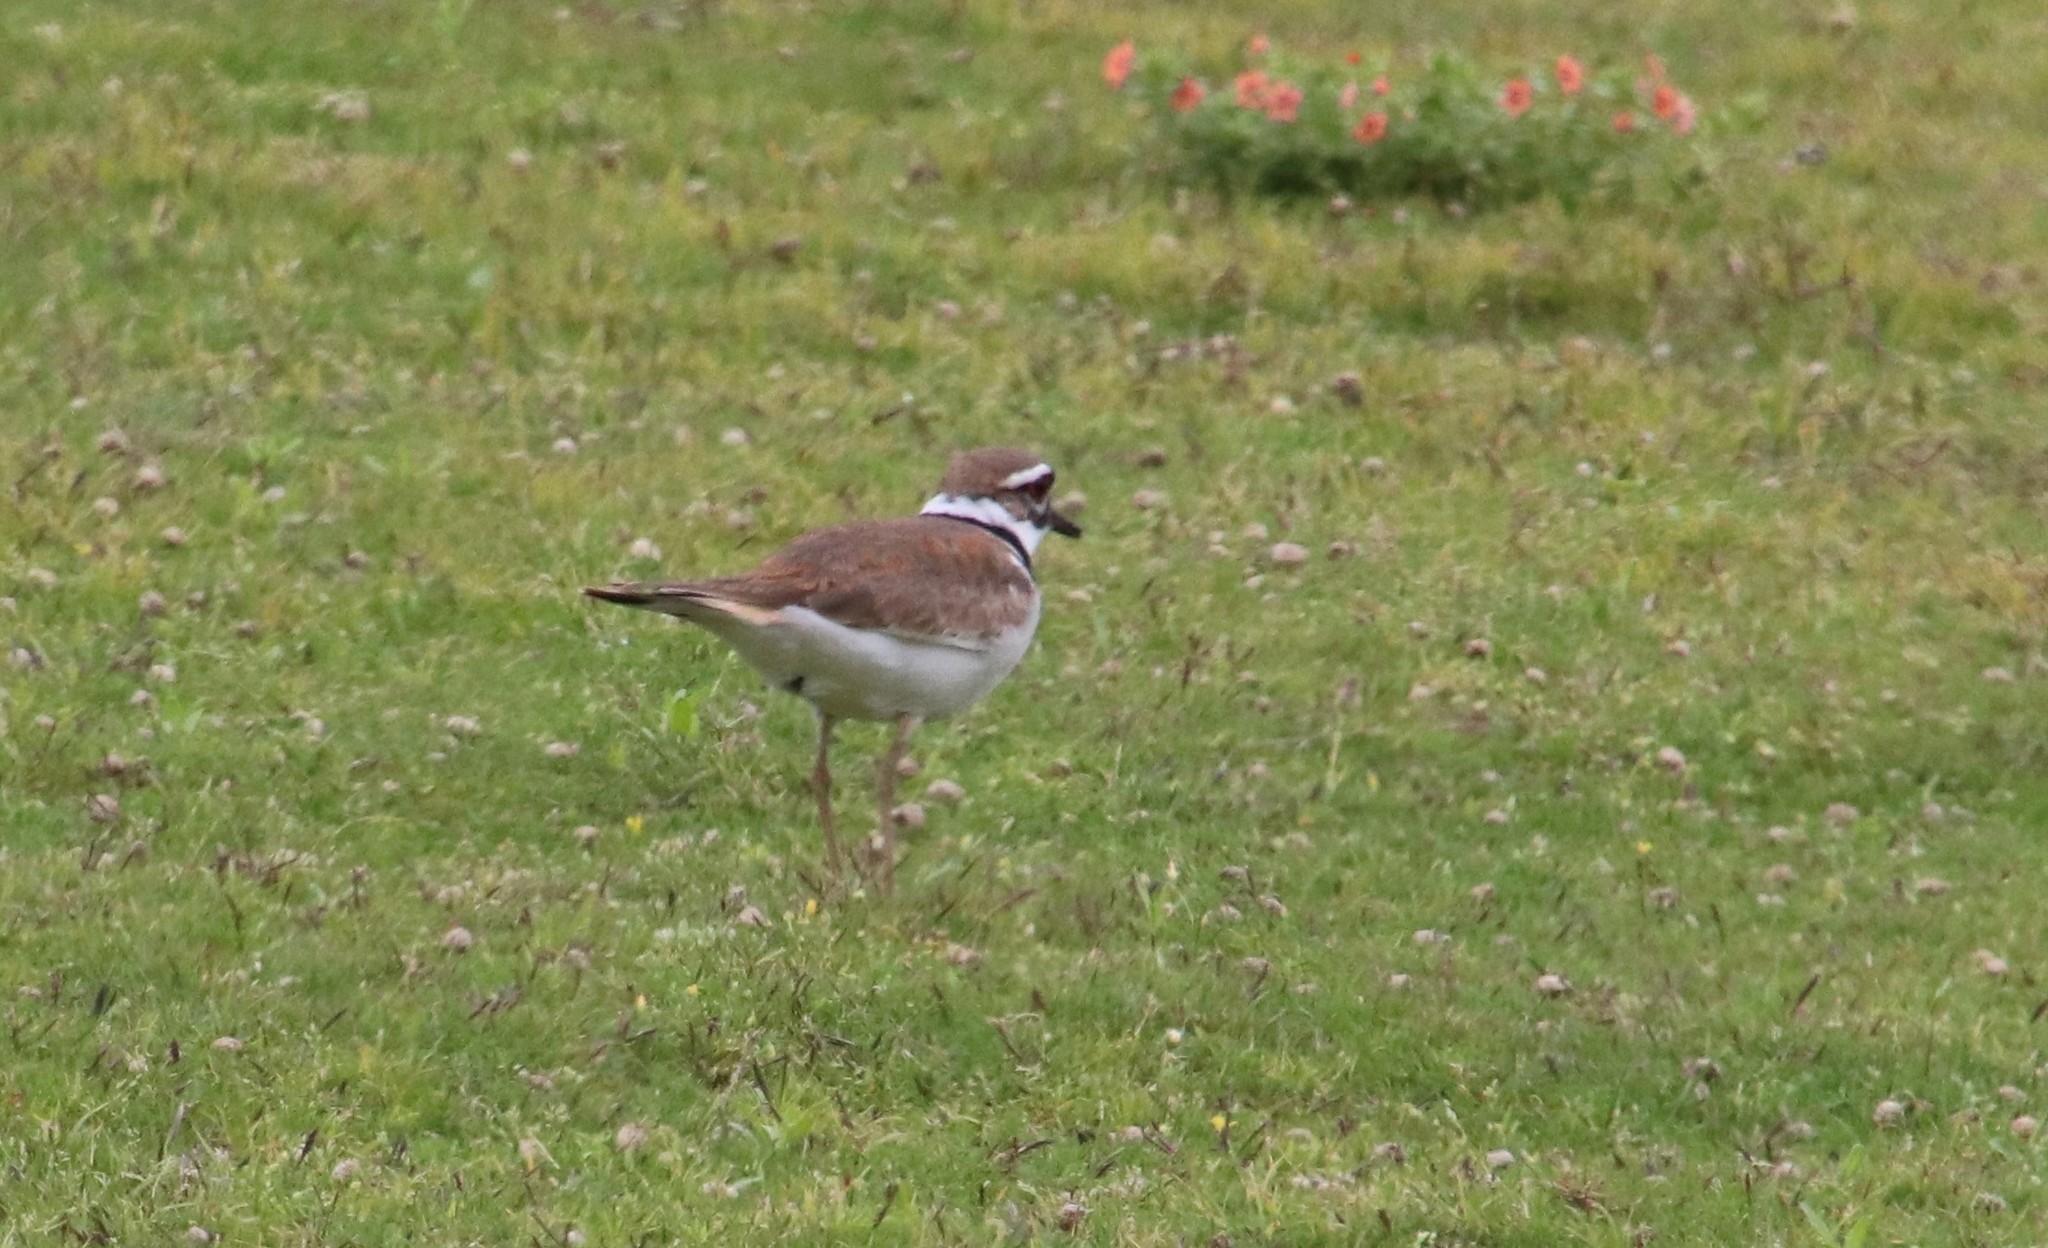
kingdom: Animalia
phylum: Chordata
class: Aves
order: Charadriiformes
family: Charadriidae
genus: Charadrius
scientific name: Charadrius vociferus
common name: Killdeer
